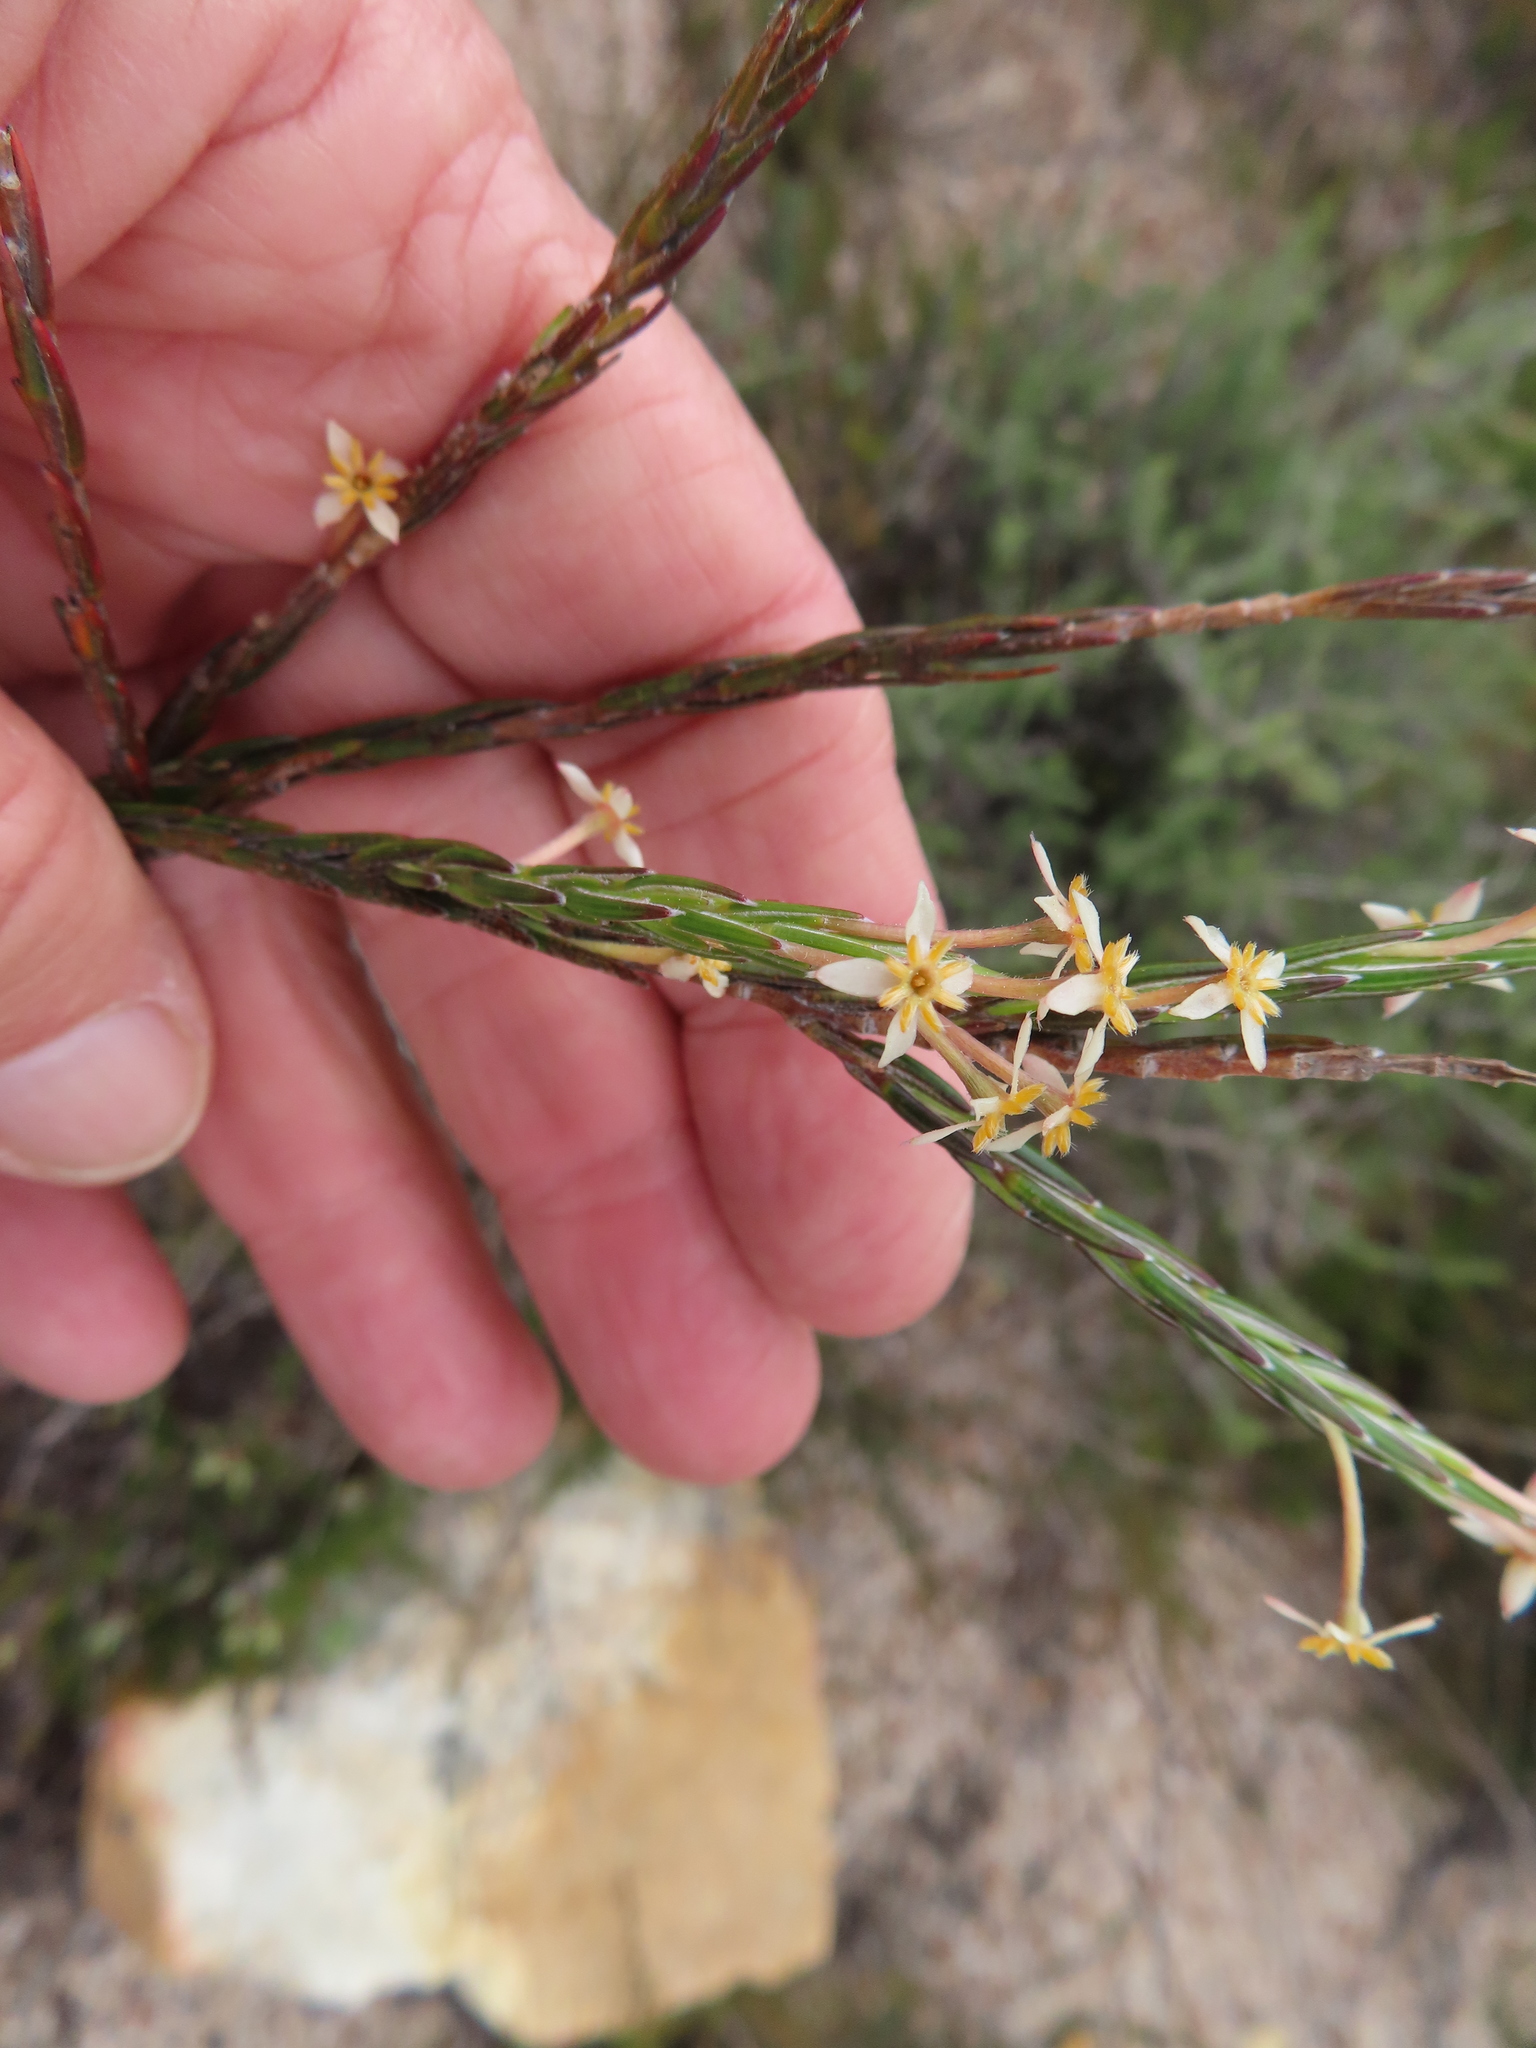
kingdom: Plantae
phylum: Tracheophyta
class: Magnoliopsida
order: Malvales
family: Thymelaeaceae
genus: Struthiola
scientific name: Struthiola ciliata
